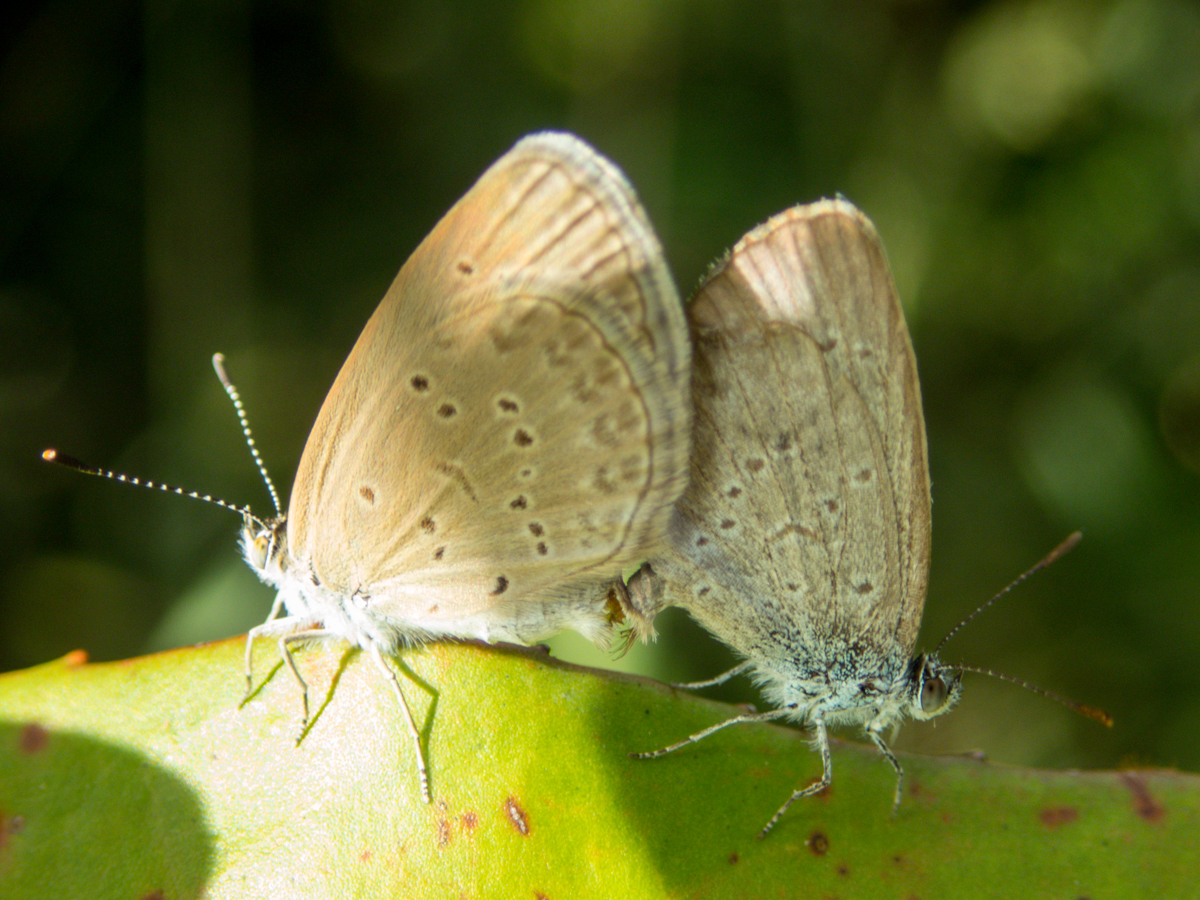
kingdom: Animalia
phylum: Arthropoda
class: Insecta
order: Lepidoptera
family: Lycaenidae
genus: Zizina
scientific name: Zizina otis
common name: Lesser grass blue
